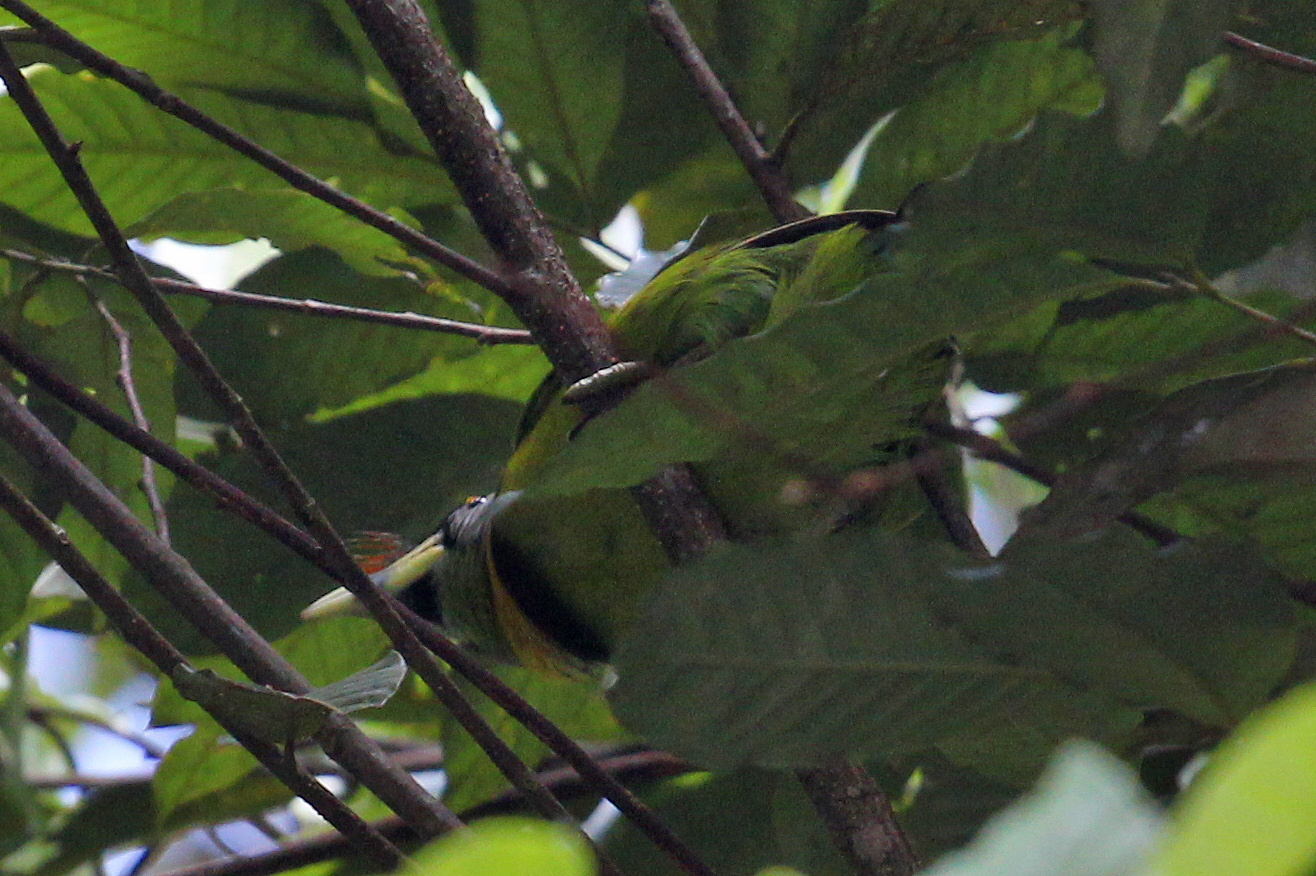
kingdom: Animalia
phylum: Chordata
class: Aves
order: Piciformes
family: Megalaimidae
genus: Psilopogon
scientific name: Psilopogon pyrolophus
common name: Fire-tufted barbet
